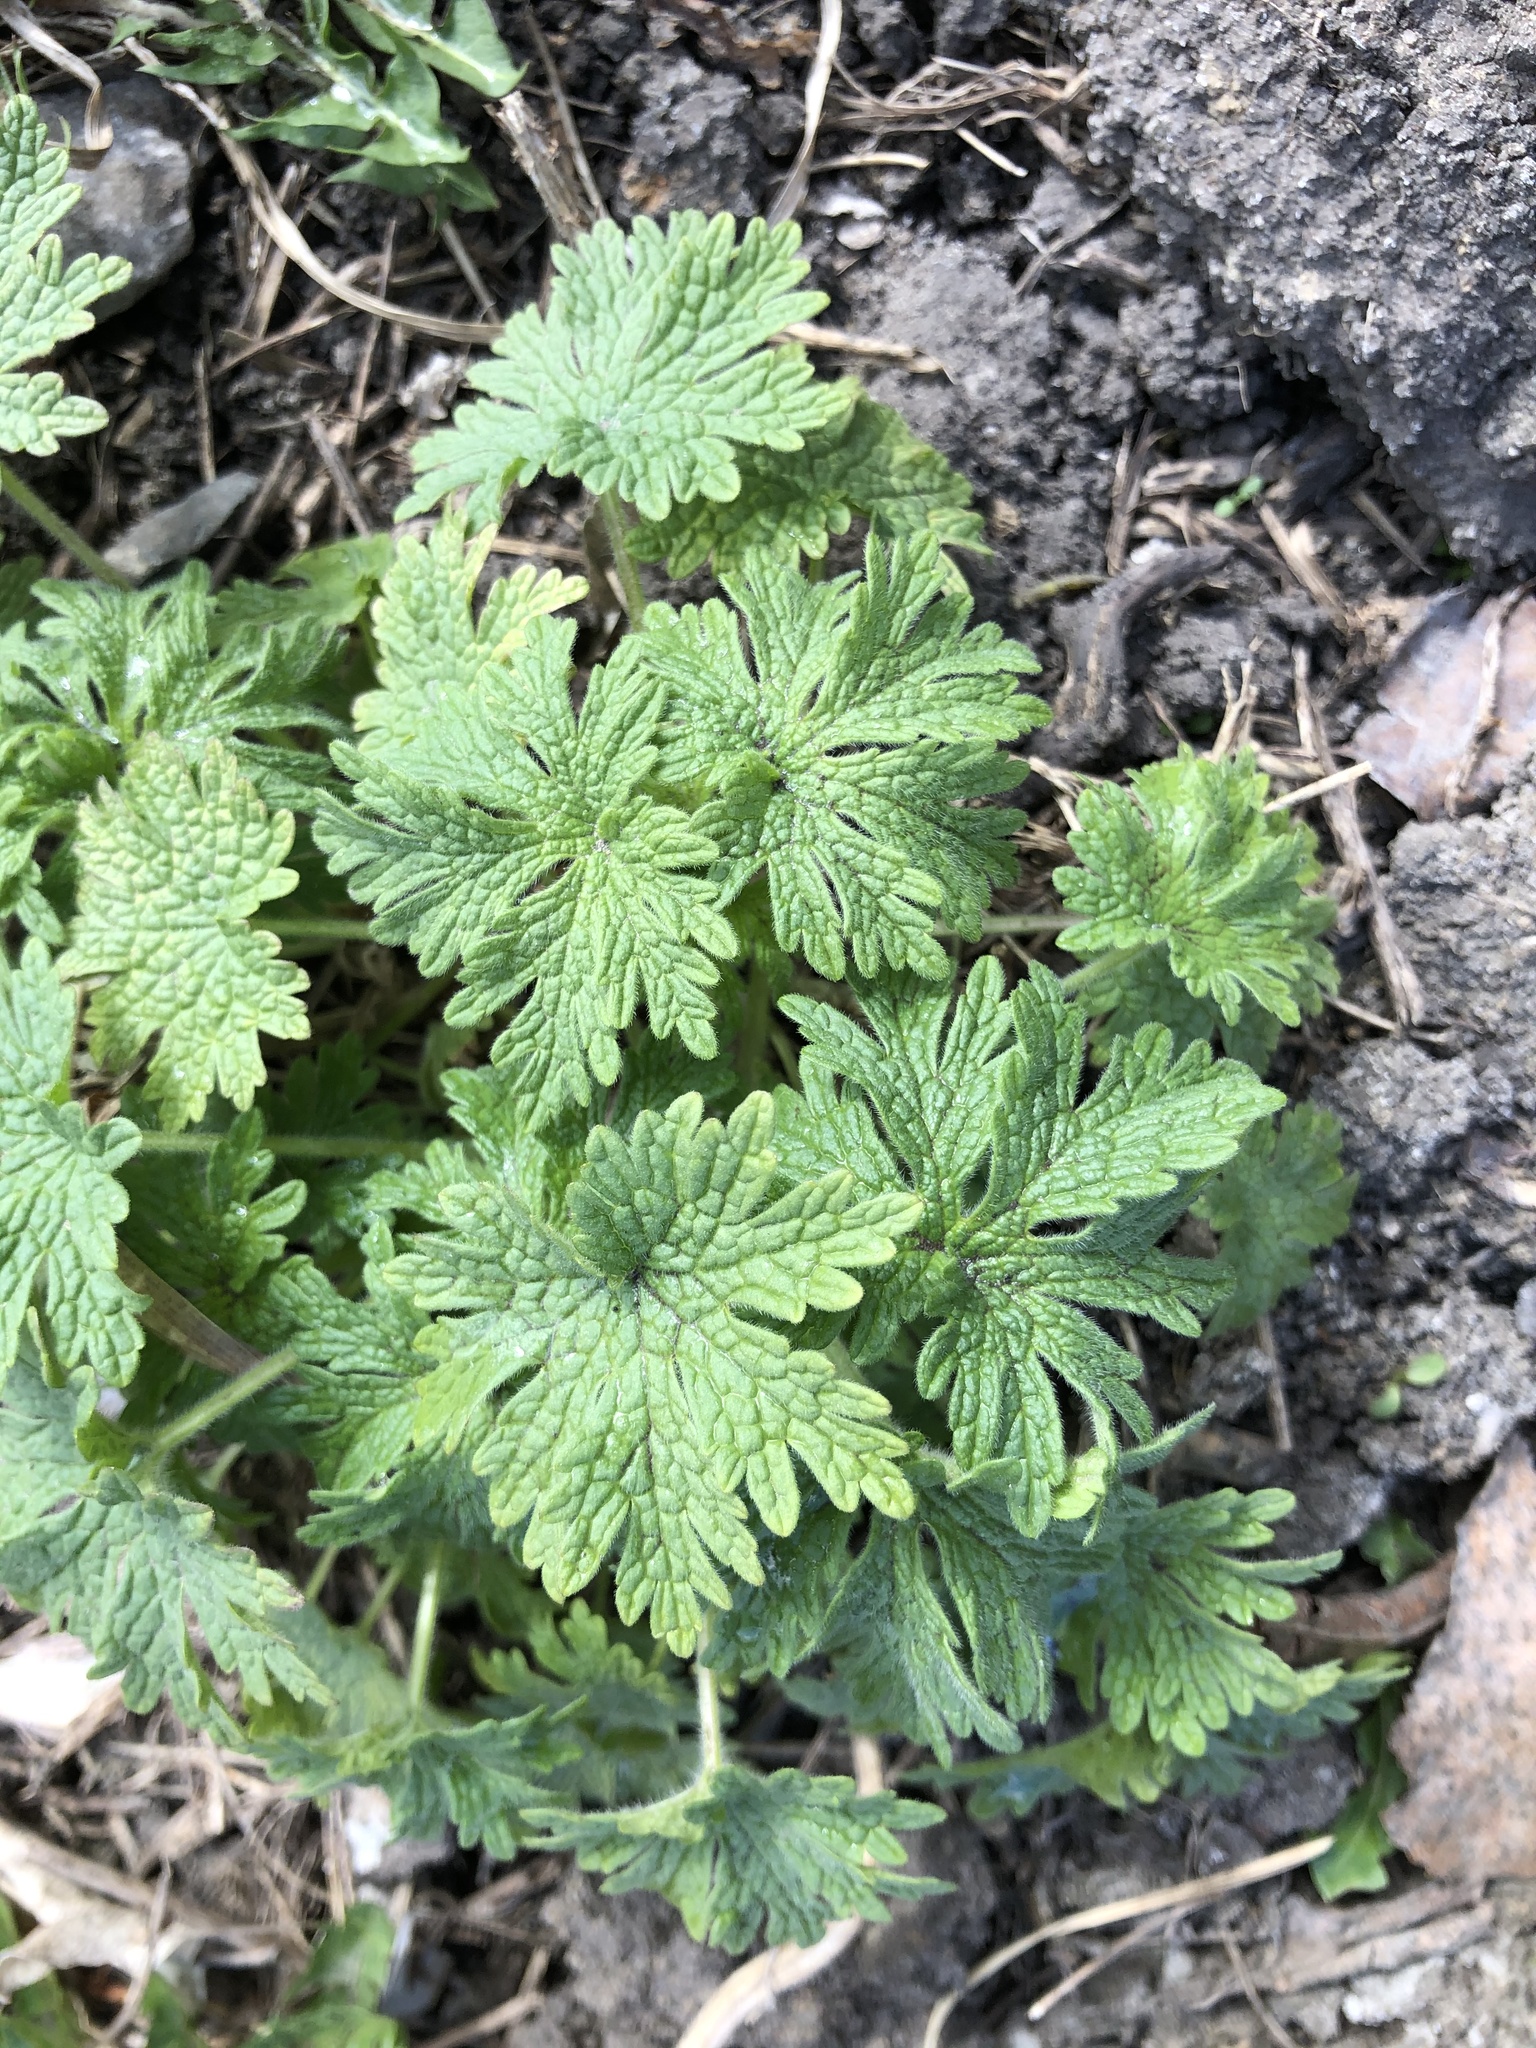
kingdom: Plantae
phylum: Tracheophyta
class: Magnoliopsida
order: Lamiales
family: Lamiaceae
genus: Leonurus
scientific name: Leonurus quinquelobatus
